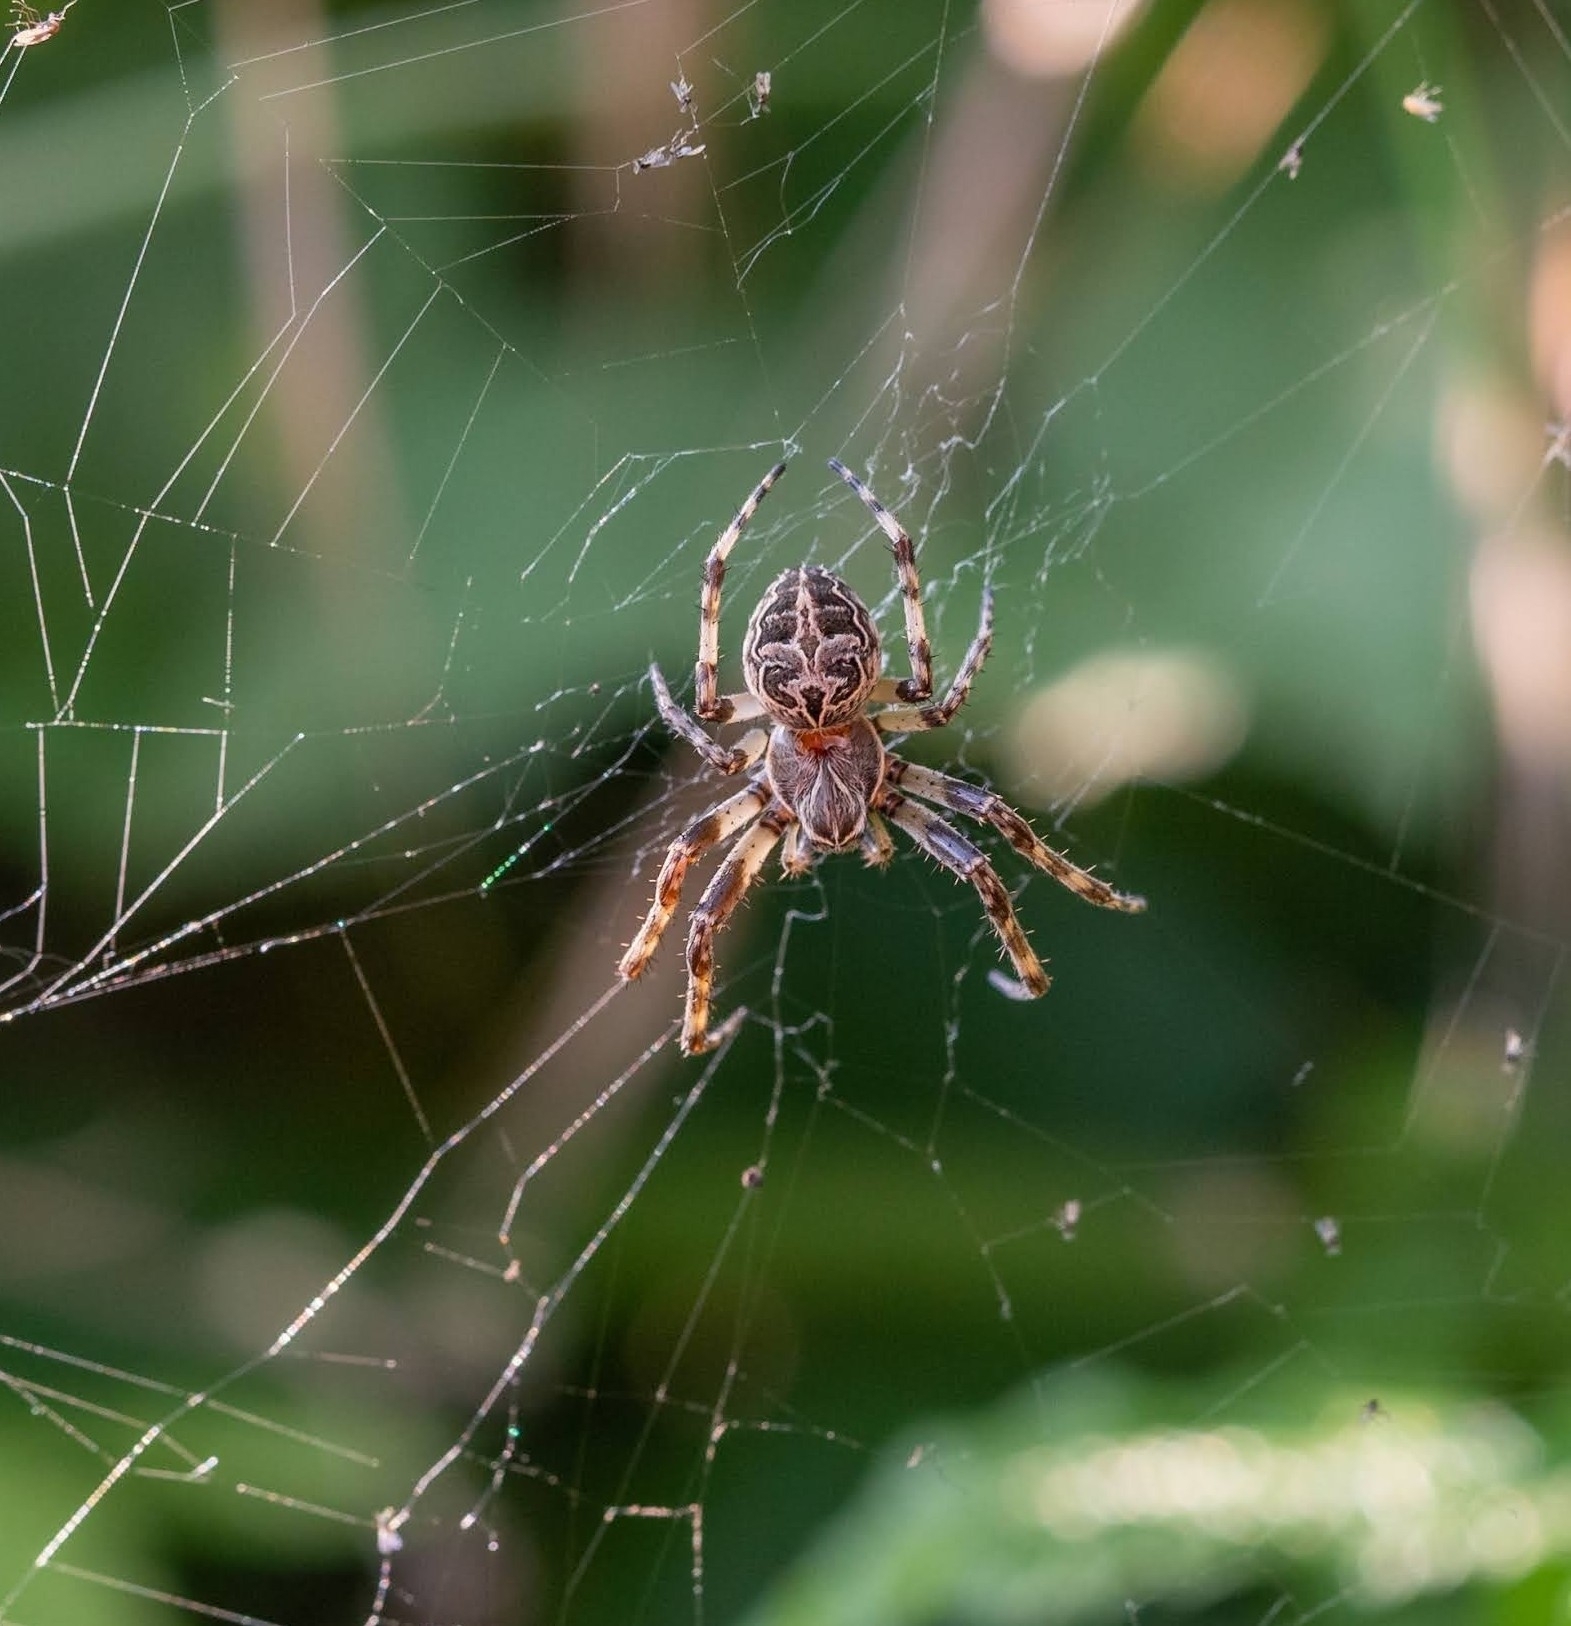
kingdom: Animalia
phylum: Arthropoda
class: Arachnida
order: Araneae
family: Araneidae
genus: Larinioides
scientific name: Larinioides sclopetarius
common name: Bridge orbweaver
